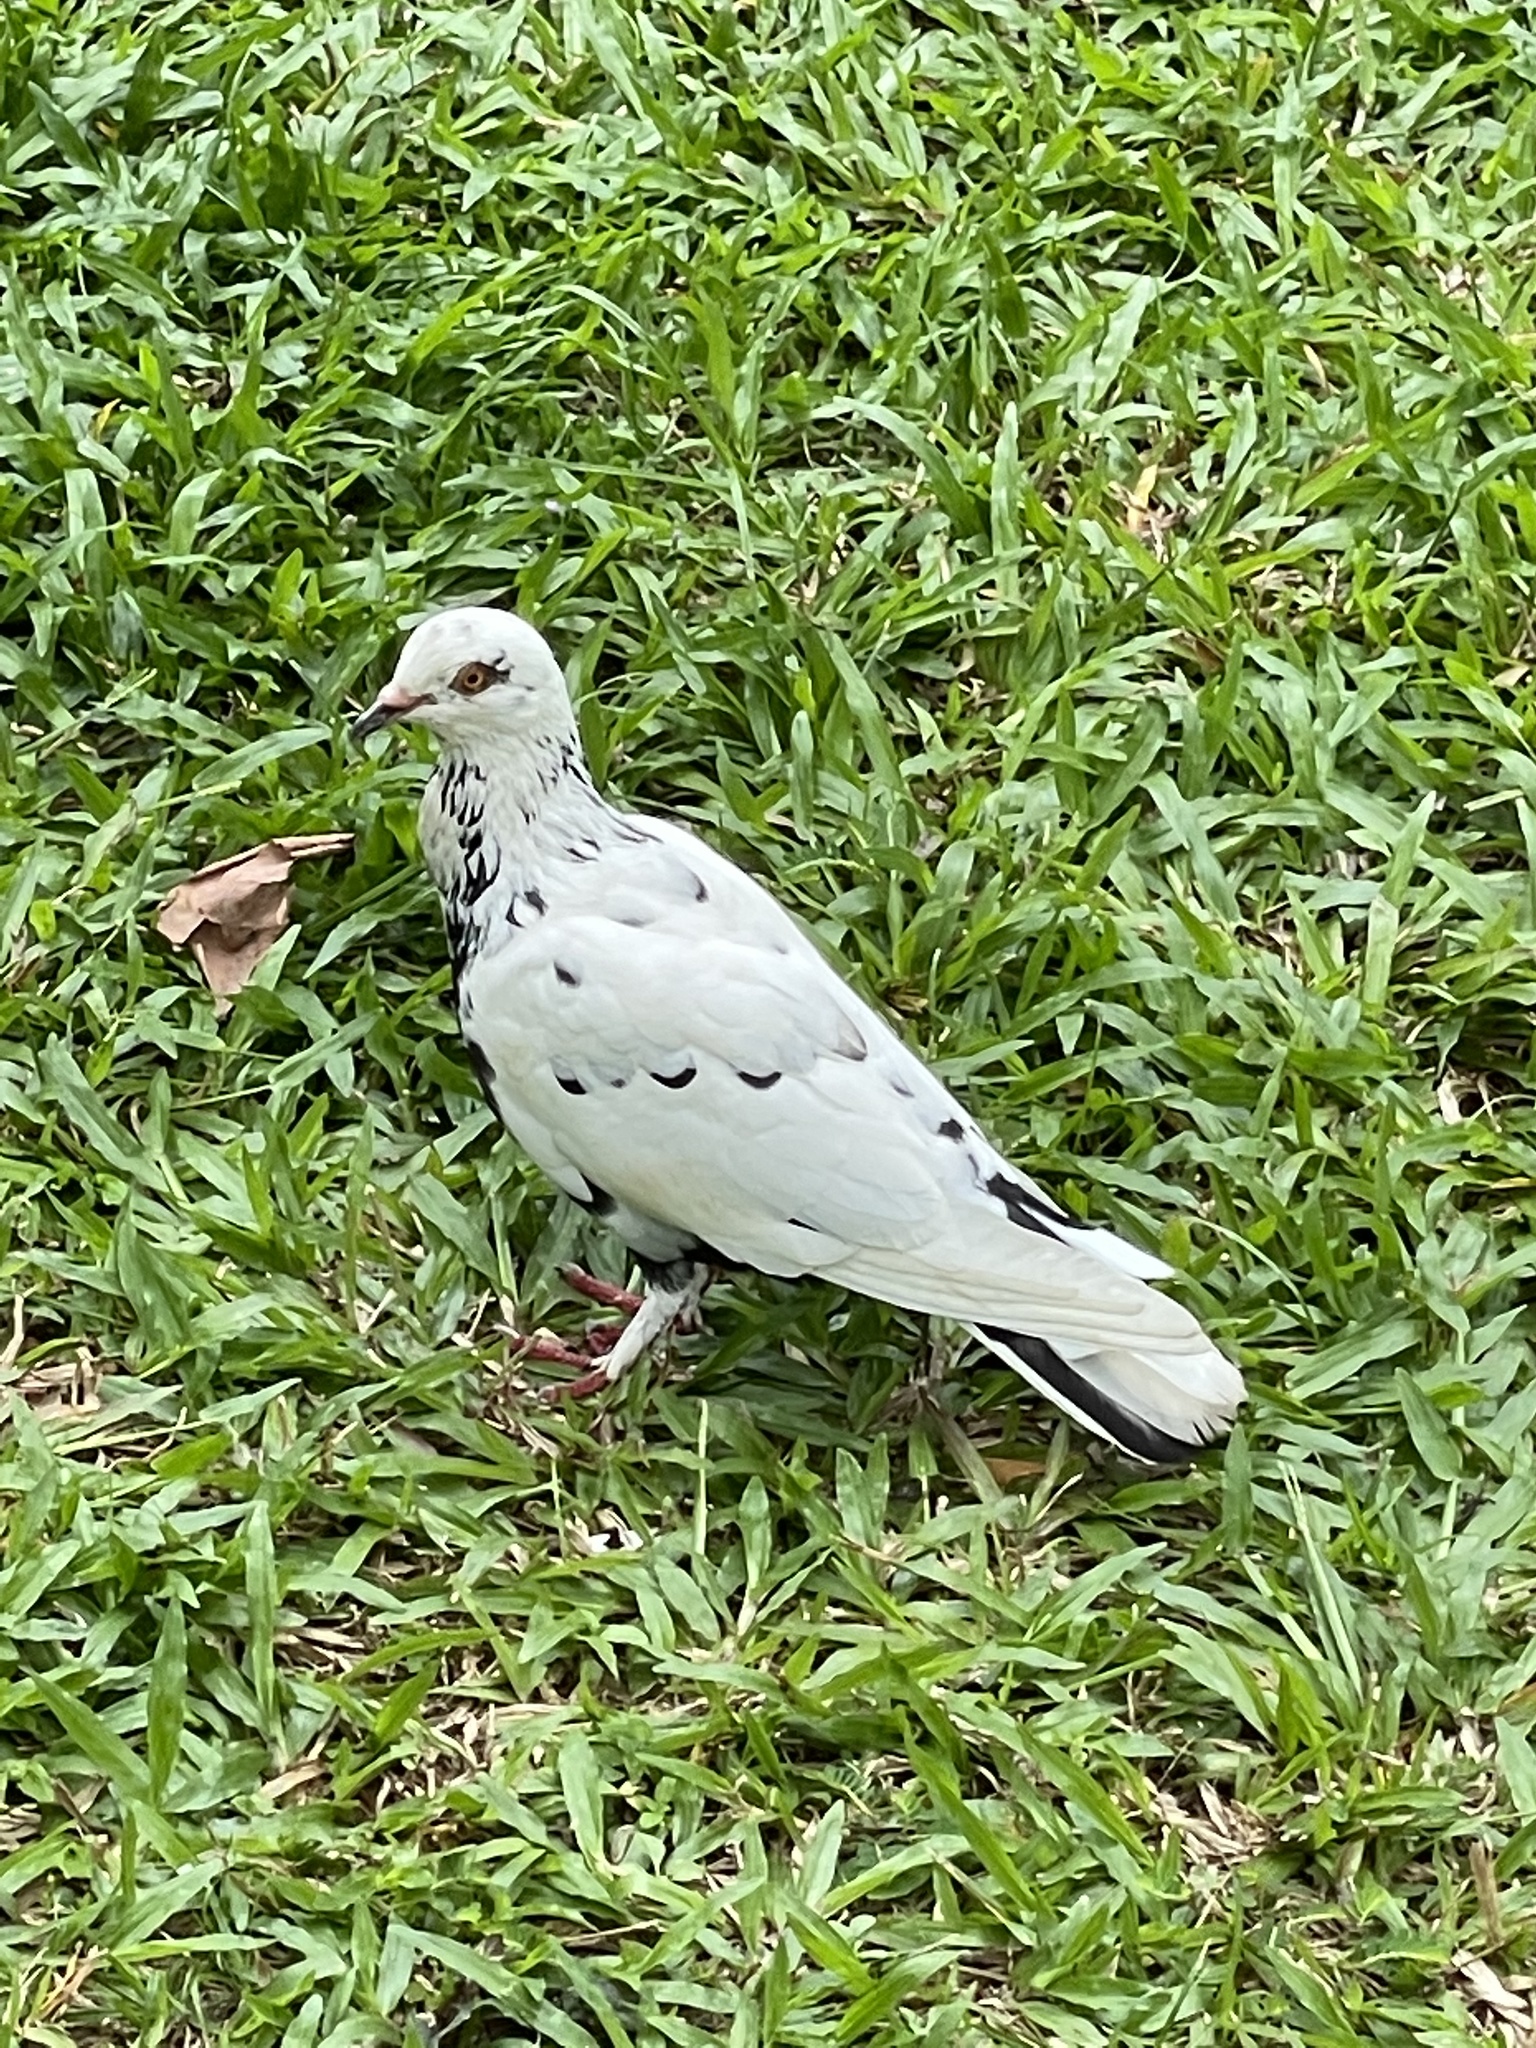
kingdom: Animalia
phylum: Chordata
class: Aves
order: Columbiformes
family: Columbidae
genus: Columba
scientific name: Columba livia
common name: Rock pigeon
